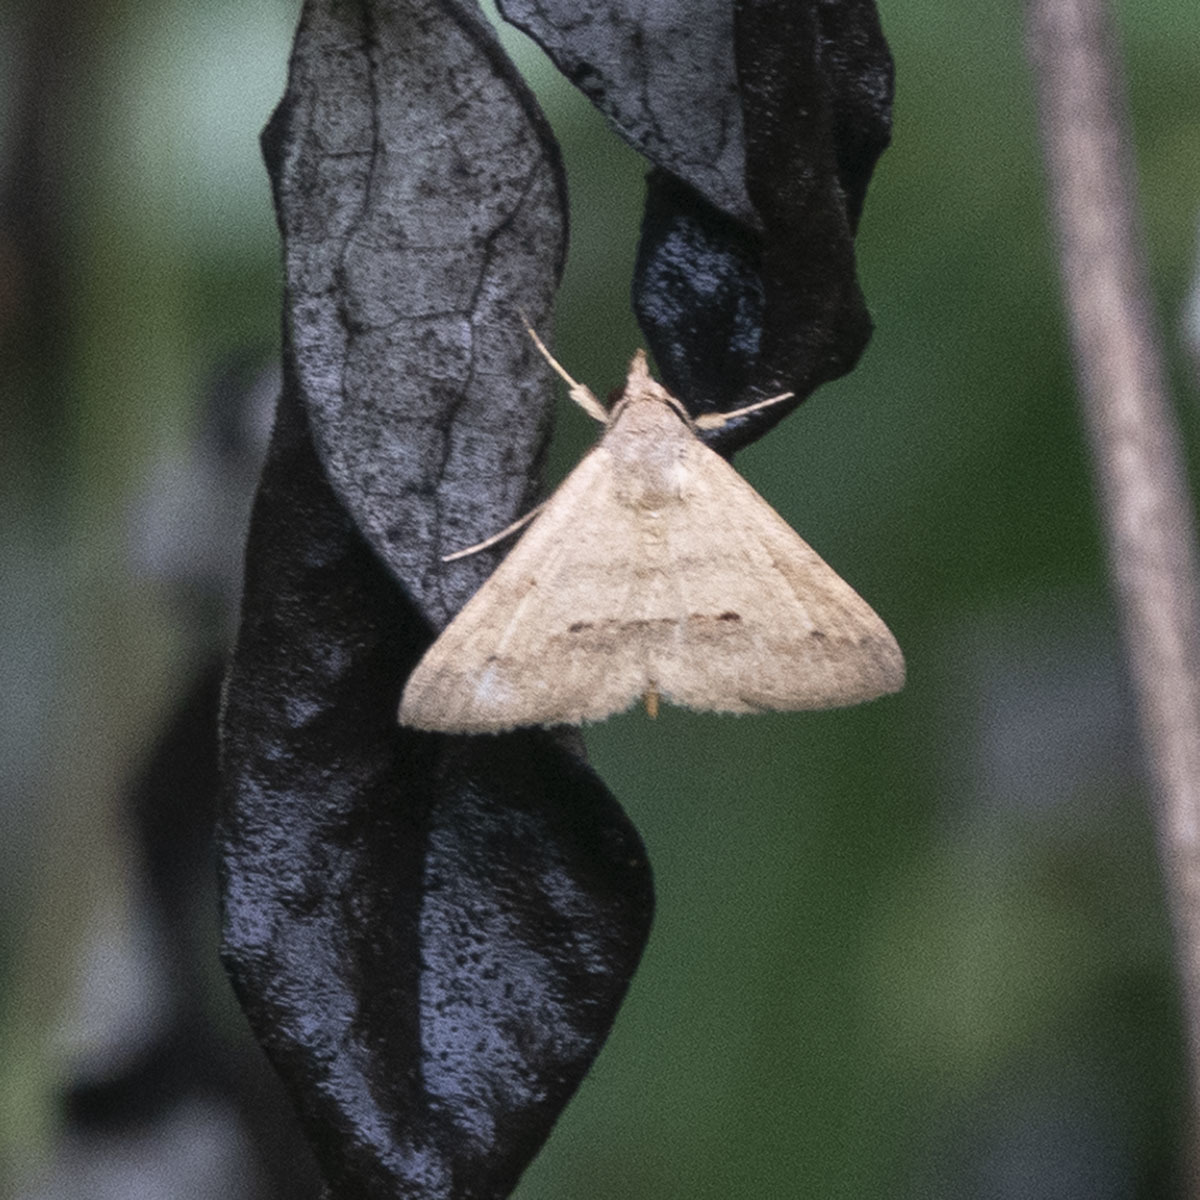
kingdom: Animalia
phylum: Arthropoda
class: Insecta
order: Lepidoptera
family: Erebidae
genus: Gesonia
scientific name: Gesonia obeditalis
